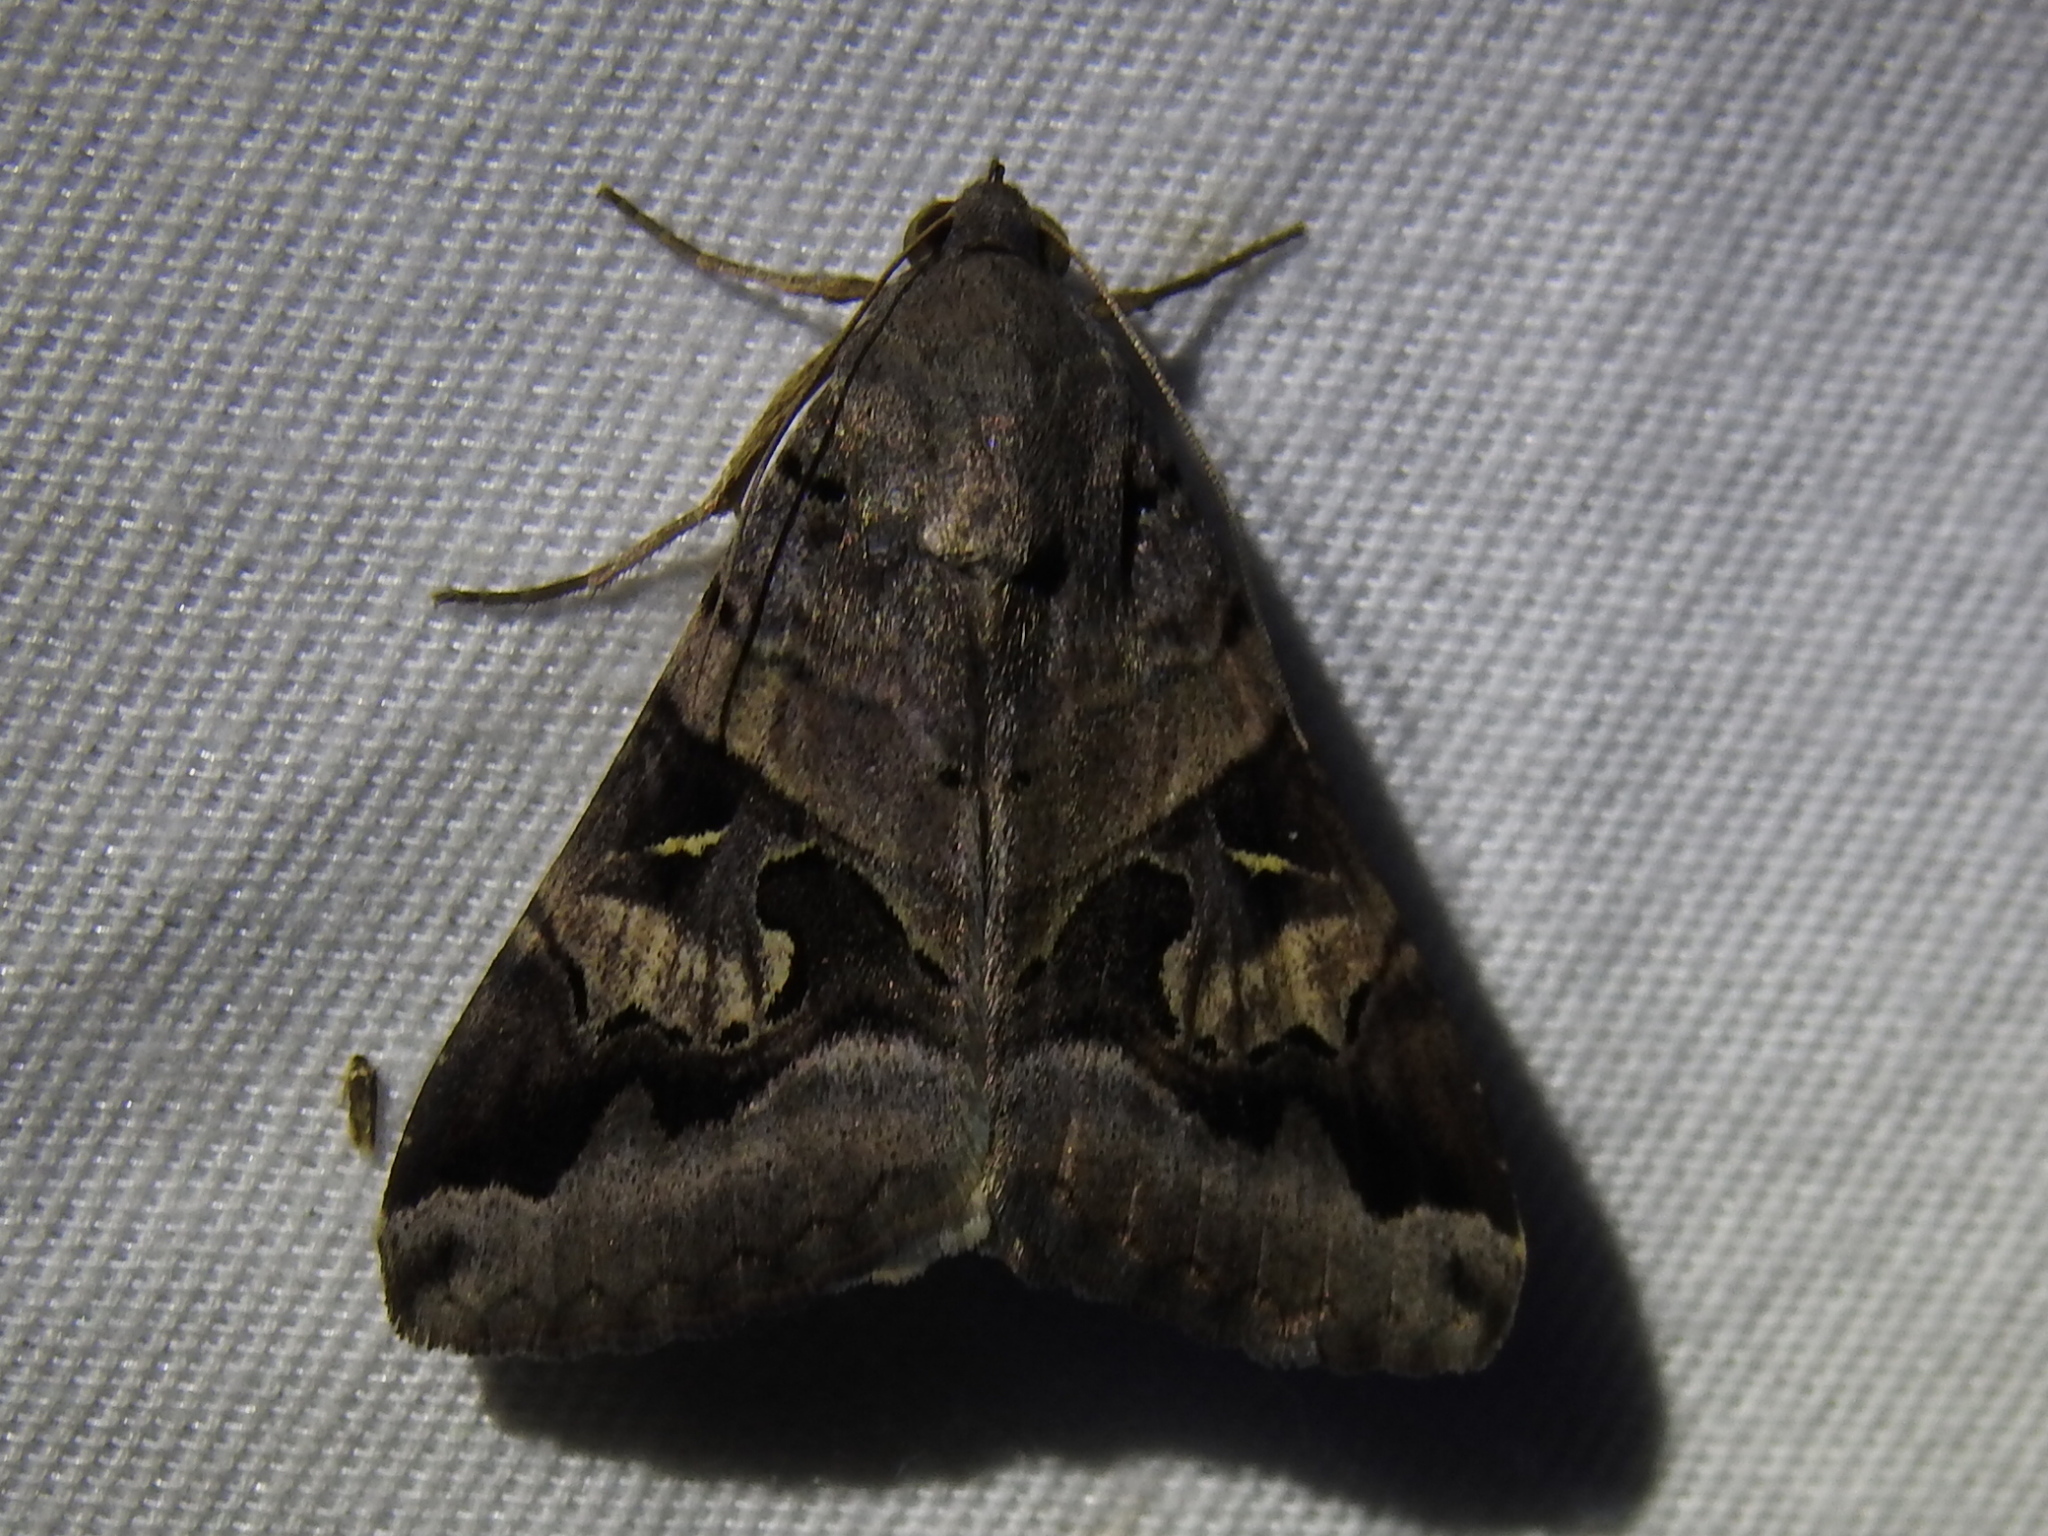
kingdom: Animalia
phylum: Arthropoda
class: Insecta
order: Lepidoptera
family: Erebidae
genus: Melipotis
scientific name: Melipotis indomita
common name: Moth
